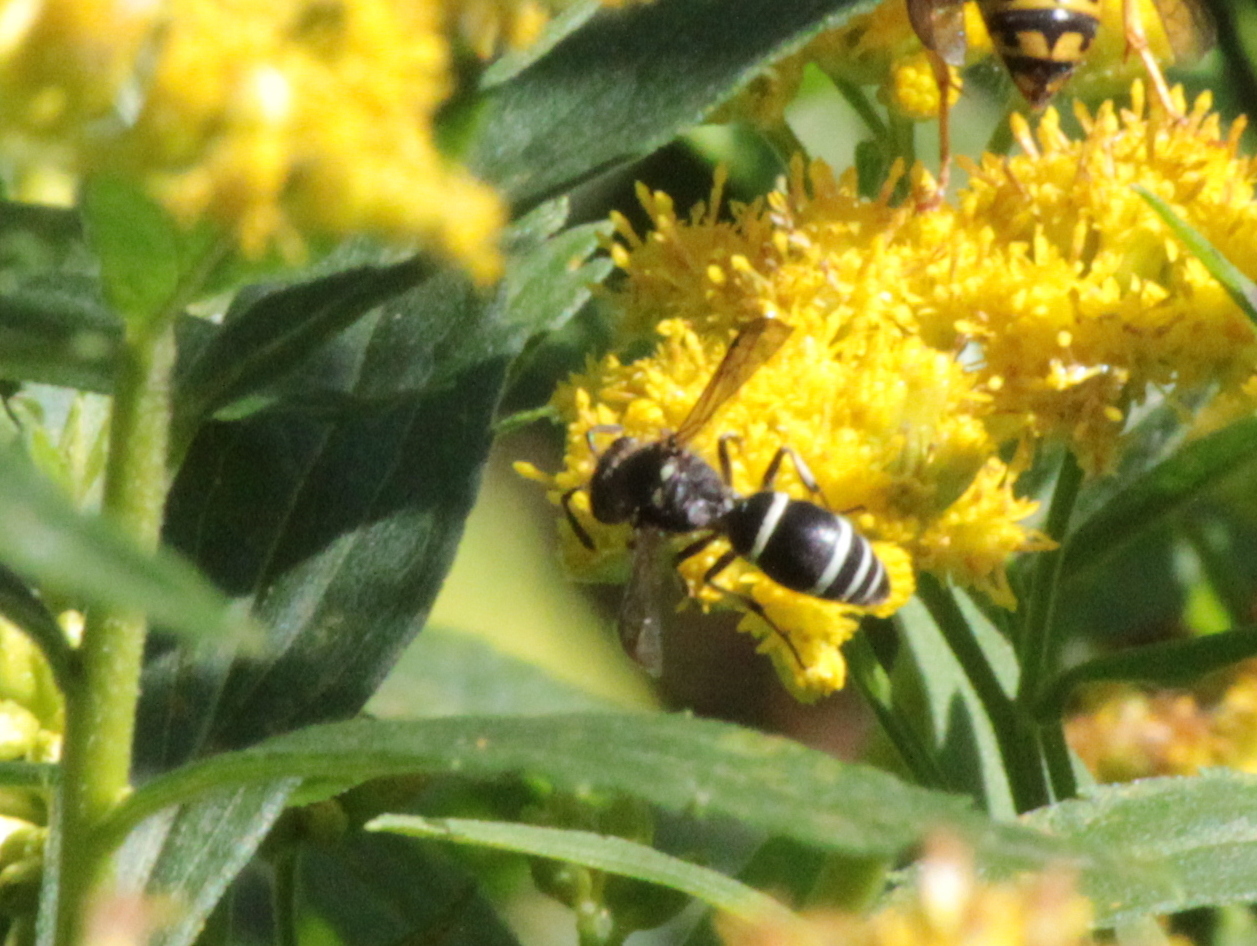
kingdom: Animalia
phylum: Arthropoda
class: Insecta
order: Hymenoptera
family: Vespidae
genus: Ancistrocerus
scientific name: Ancistrocerus albophaleratus
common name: White-banded potter wasp
